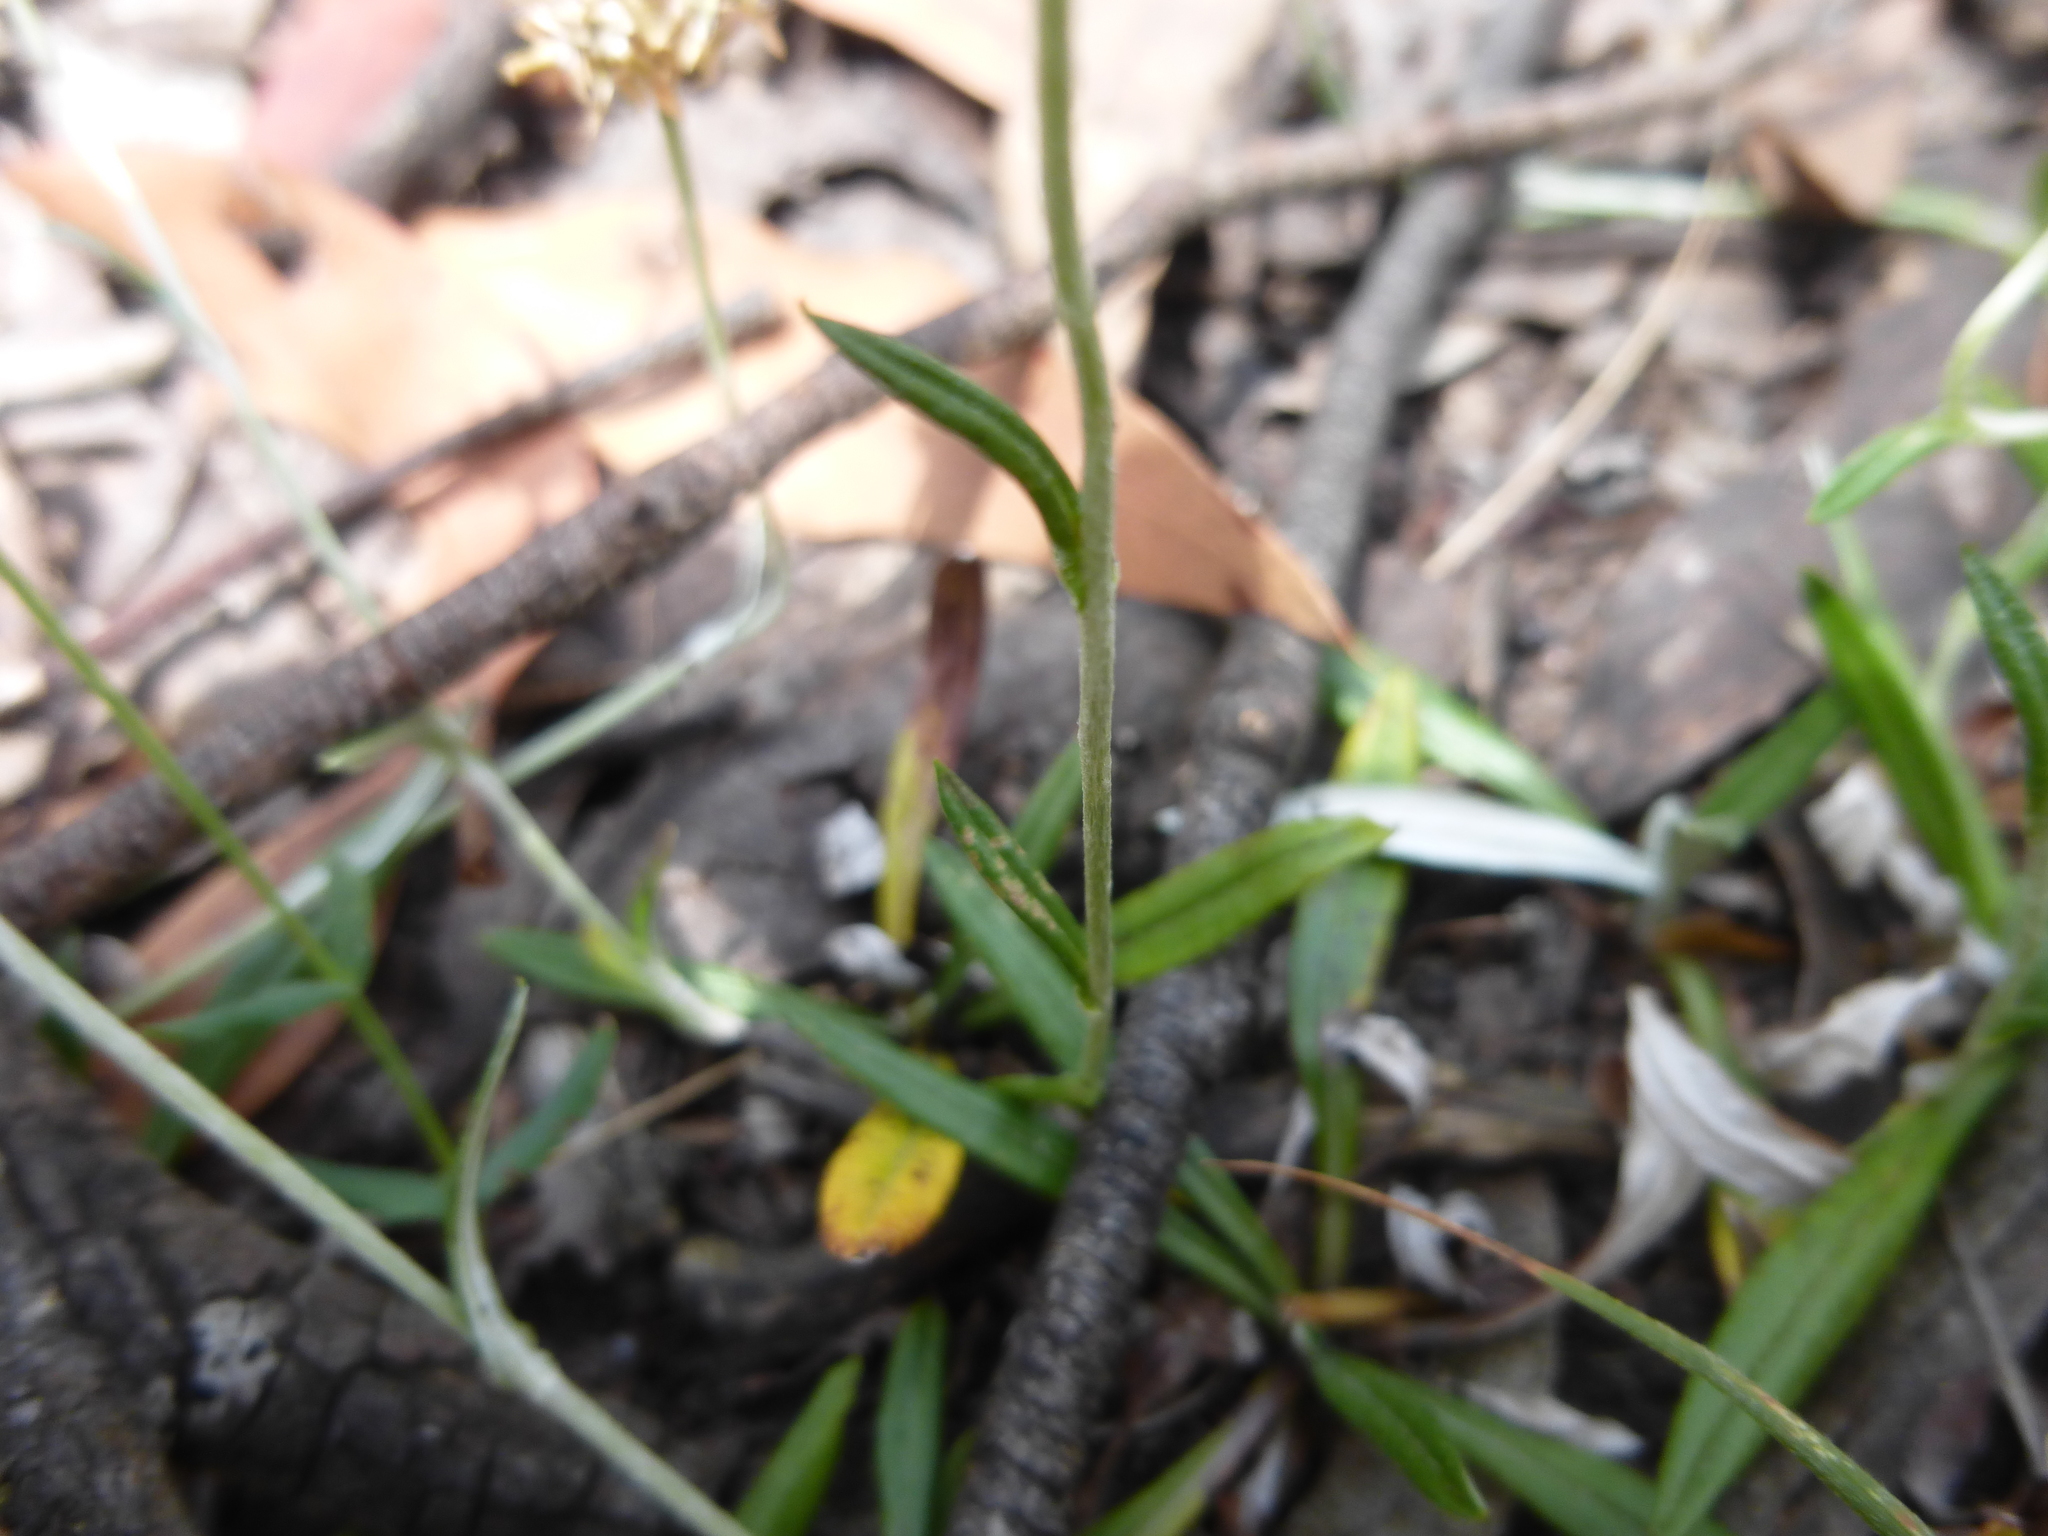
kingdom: Plantae
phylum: Tracheophyta
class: Magnoliopsida
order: Asterales
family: Asteraceae
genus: Euchiton
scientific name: Euchiton japonicus
